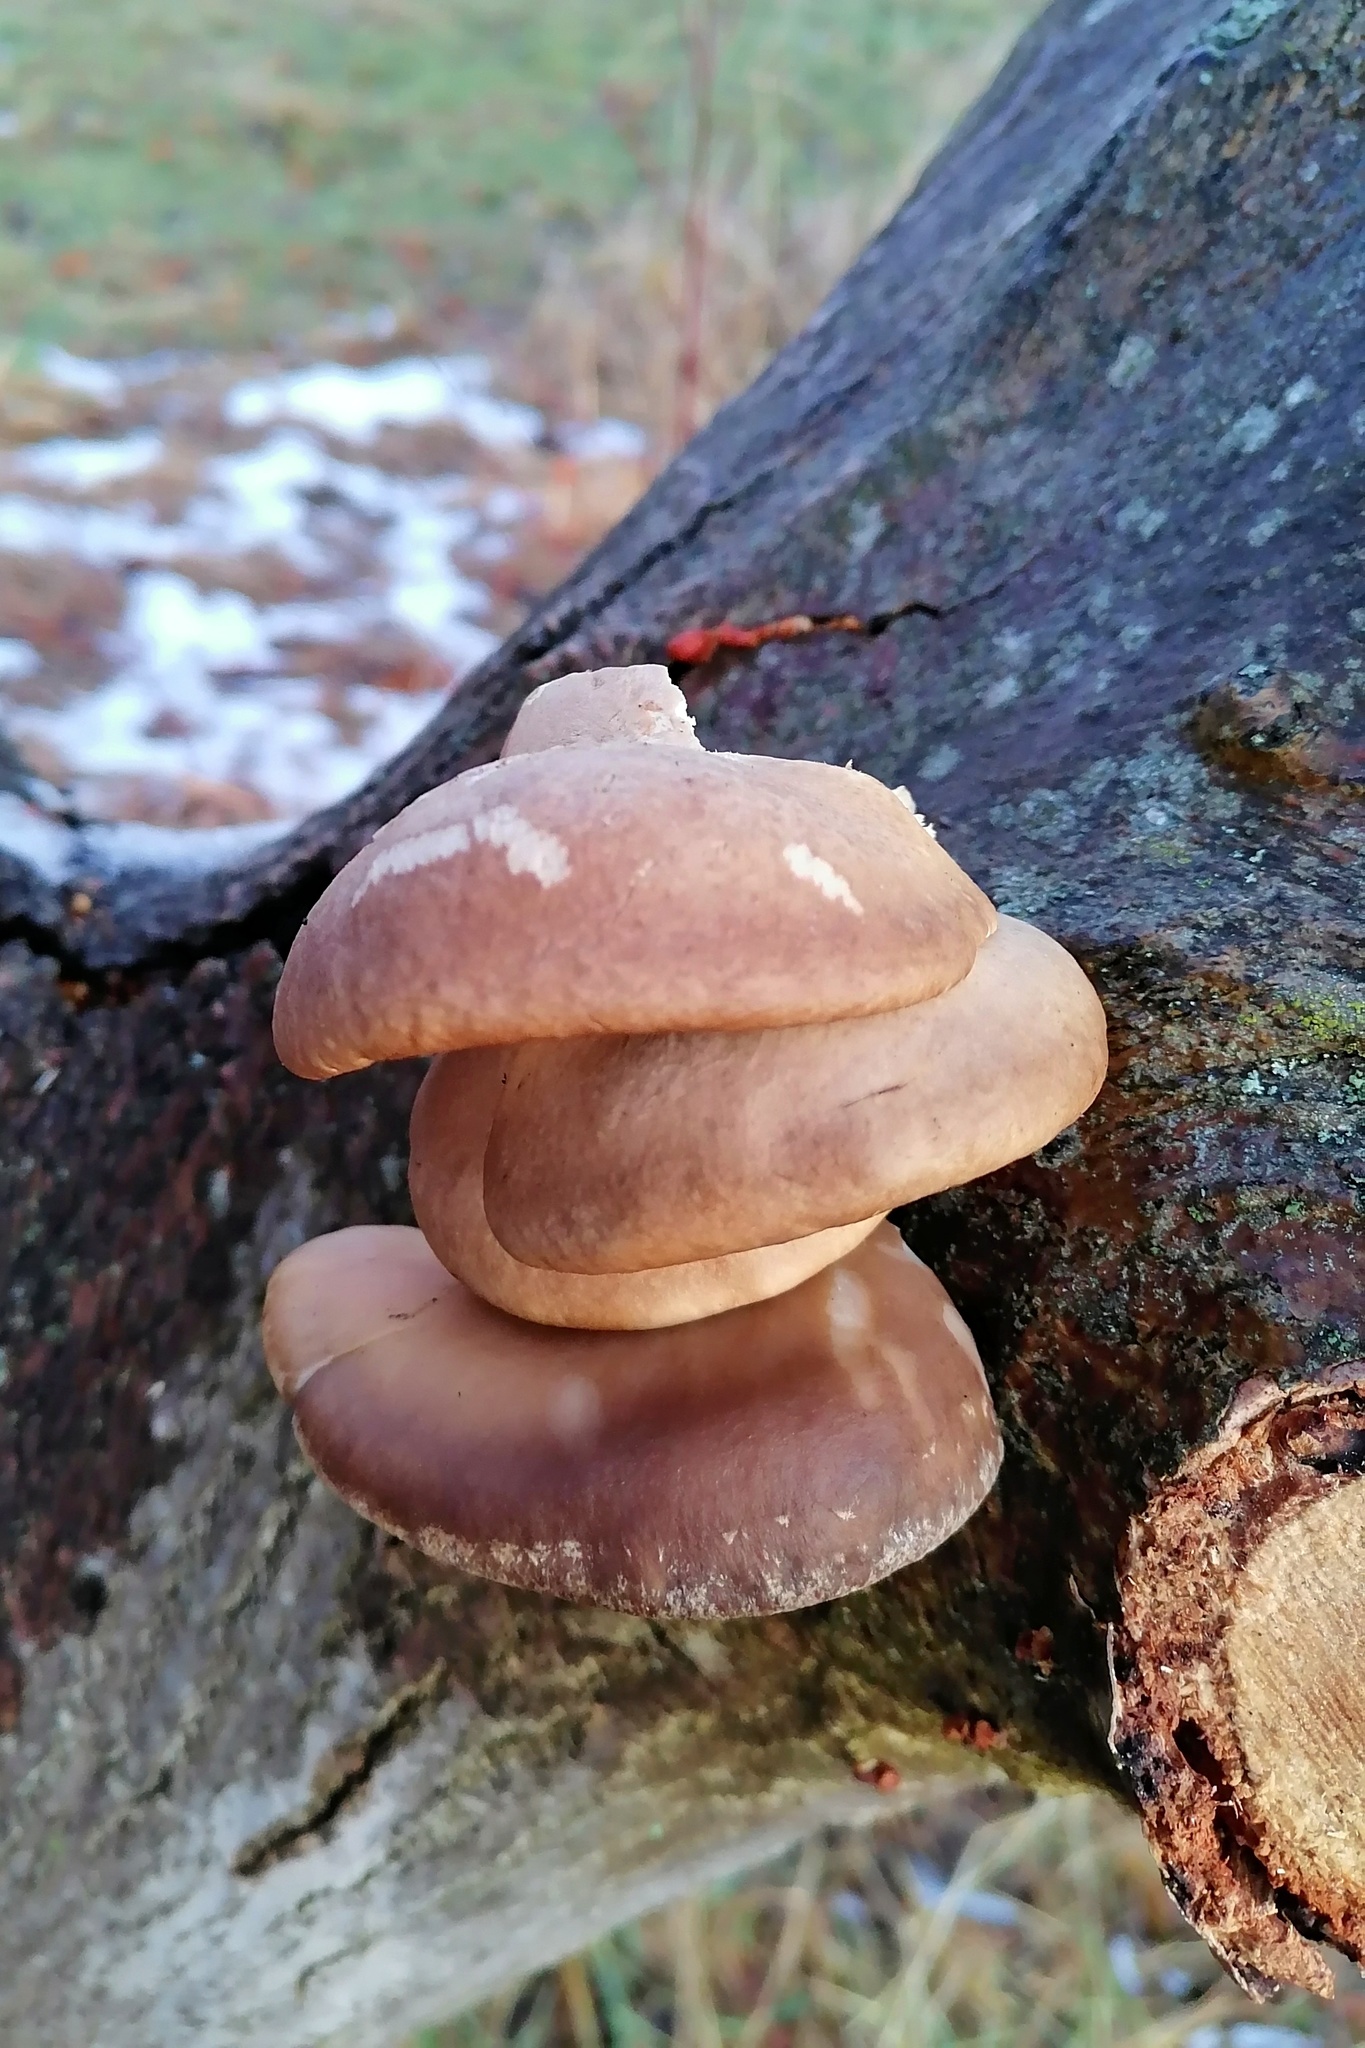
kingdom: Fungi
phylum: Basidiomycota
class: Agaricomycetes
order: Agaricales
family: Pleurotaceae
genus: Pleurotus
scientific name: Pleurotus ostreatus
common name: Oyster mushroom
